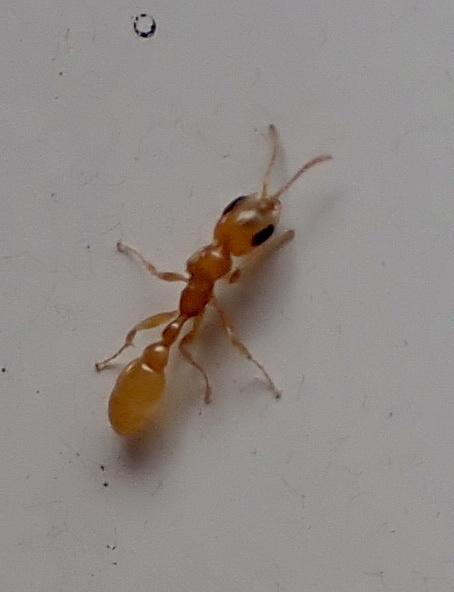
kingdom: Animalia
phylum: Arthropoda
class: Insecta
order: Hymenoptera
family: Formicidae
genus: Pseudomyrmex
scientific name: Pseudomyrmex pallidus
